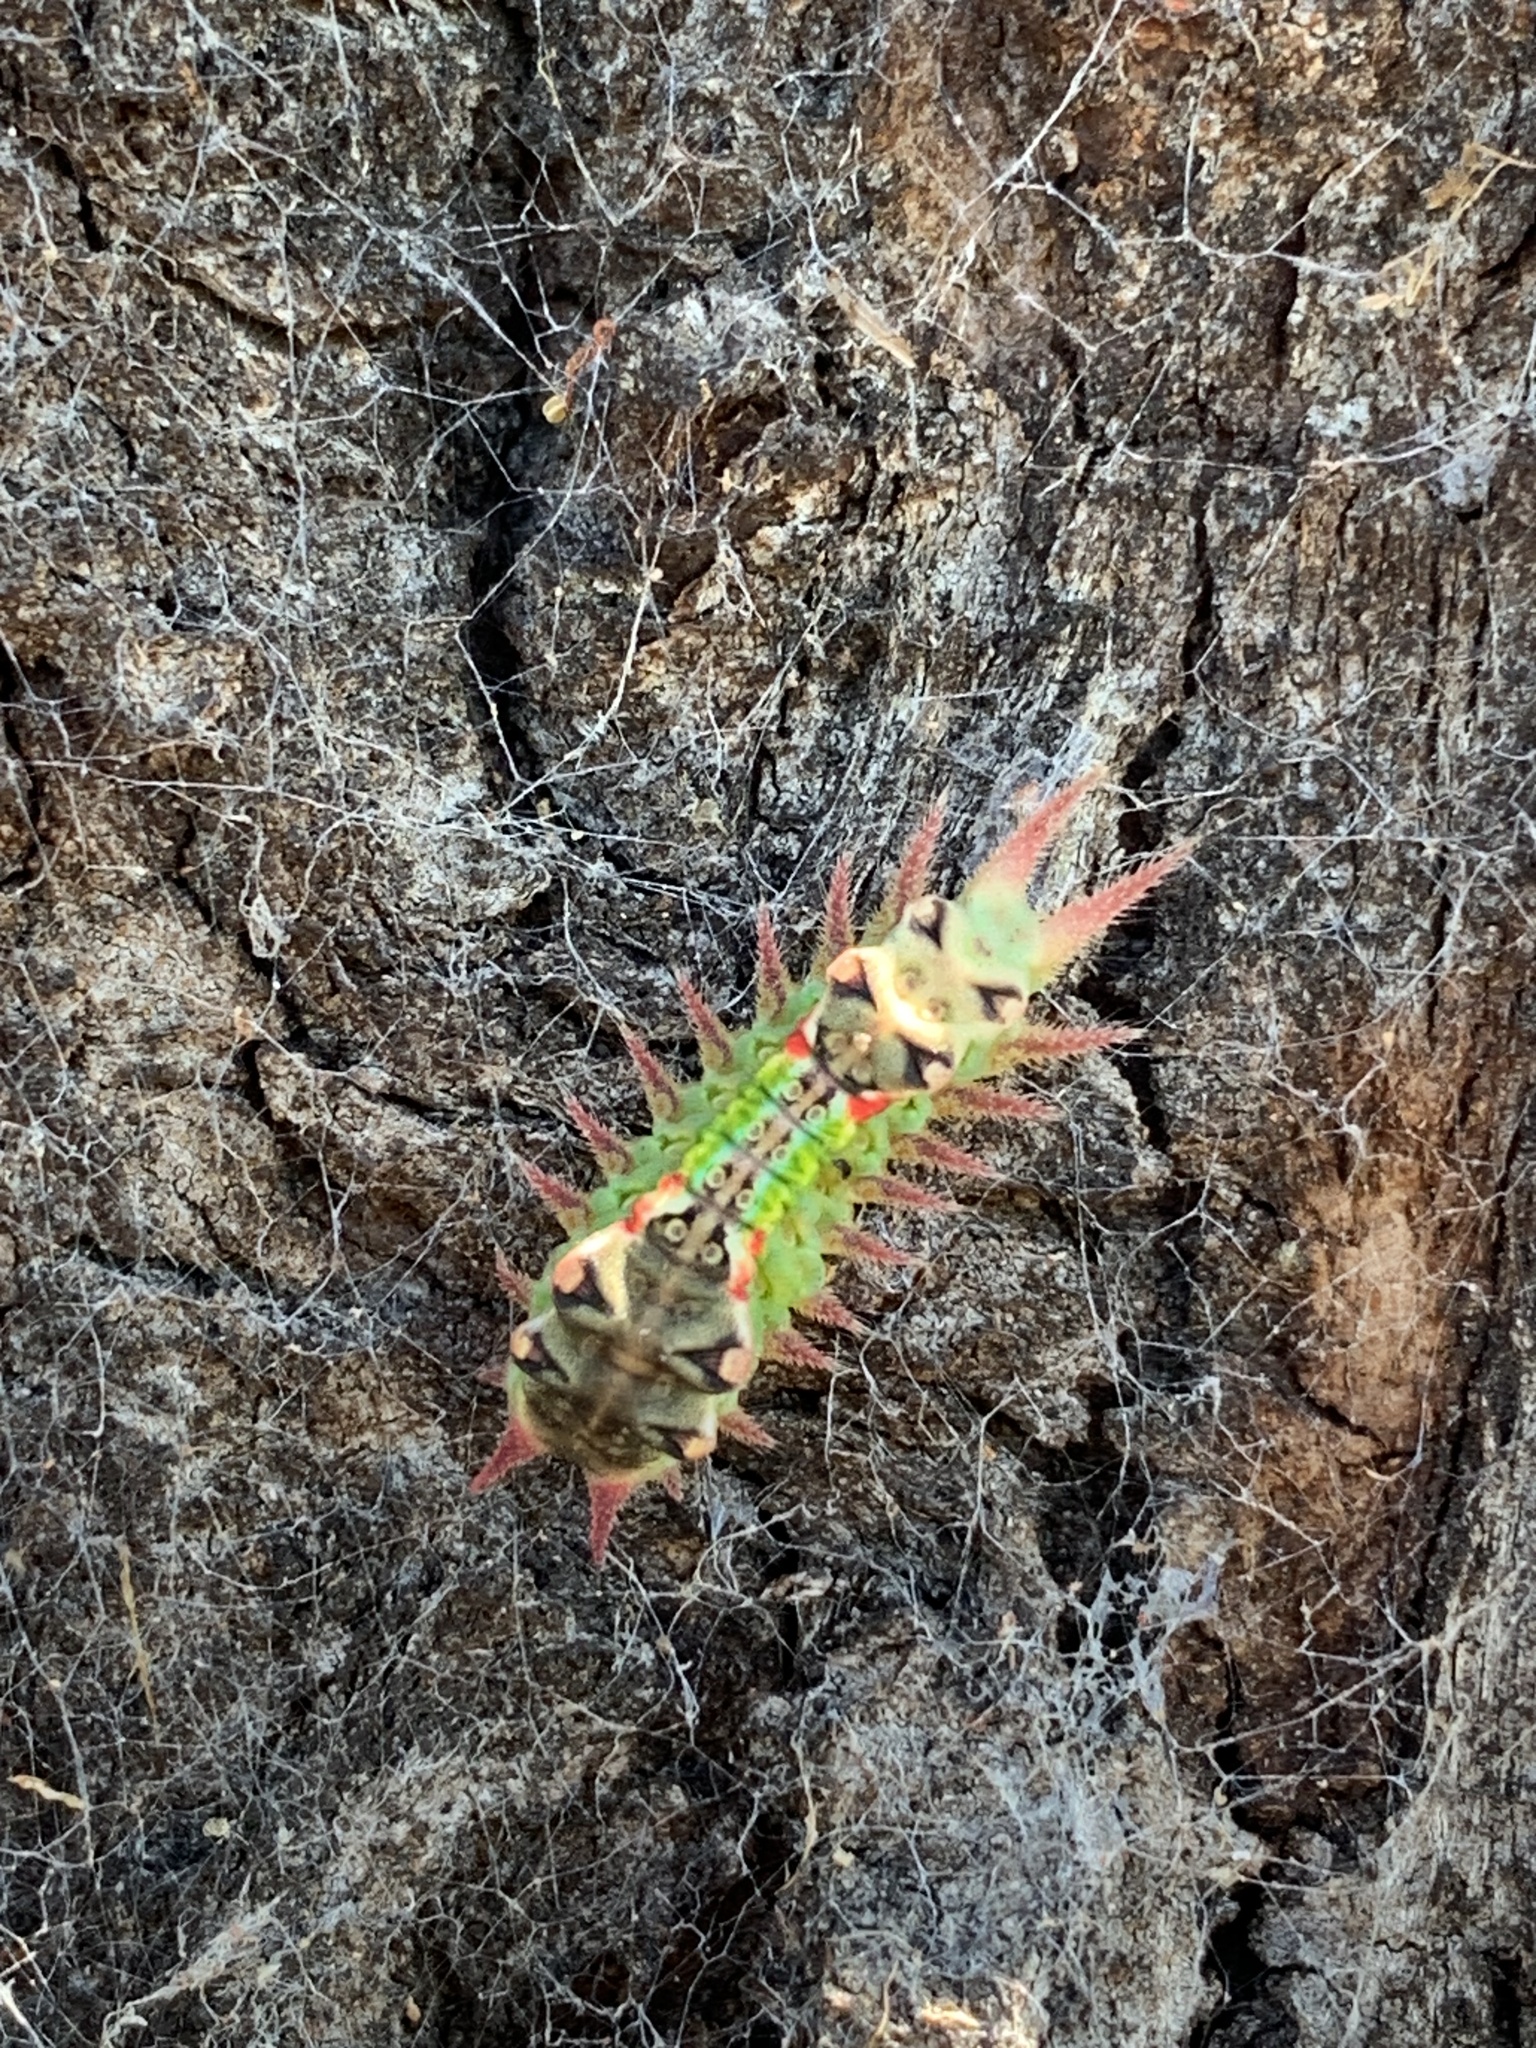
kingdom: Animalia
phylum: Arthropoda
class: Insecta
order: Lepidoptera
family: Limacodidae
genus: Doratifera
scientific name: Doratifera oxleyi
